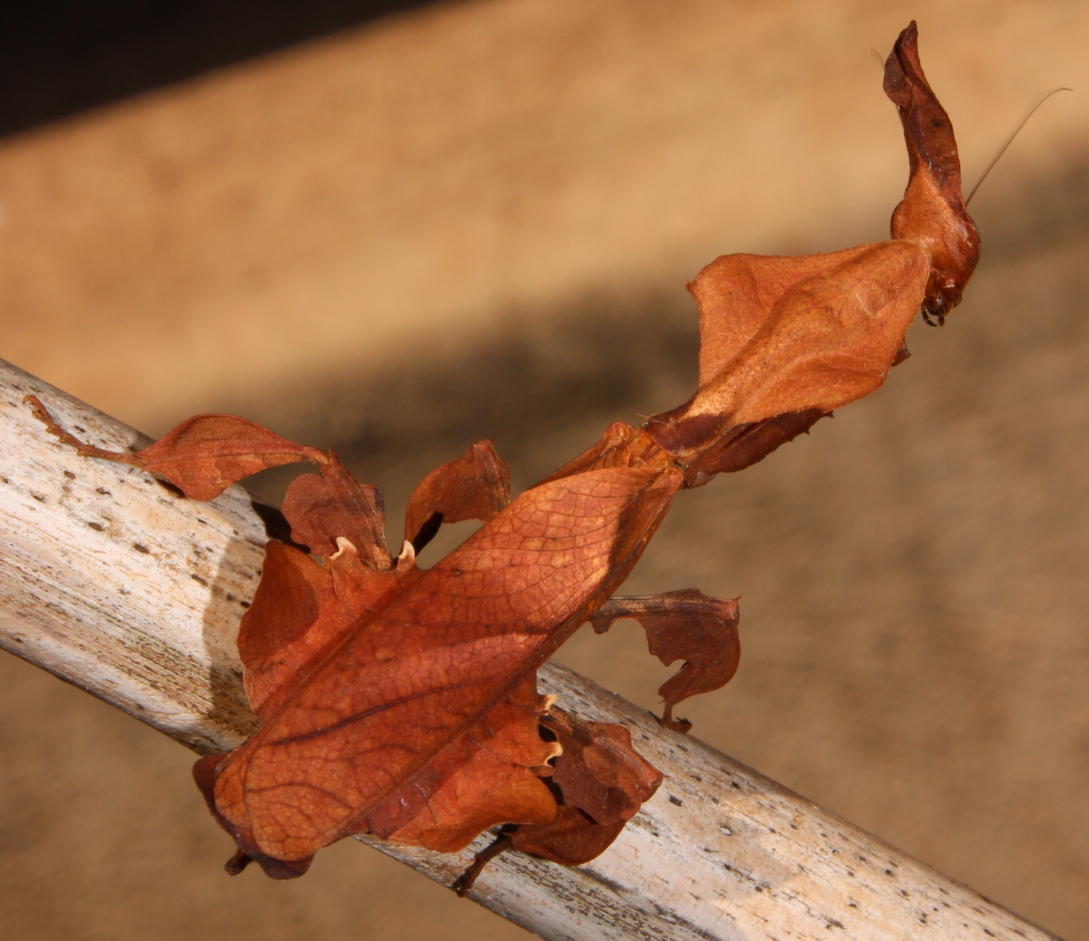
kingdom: Animalia
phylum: Arthropoda
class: Insecta
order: Mantodea
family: Hymenopodidae
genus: Phyllocrania
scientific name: Phyllocrania paradoxa
